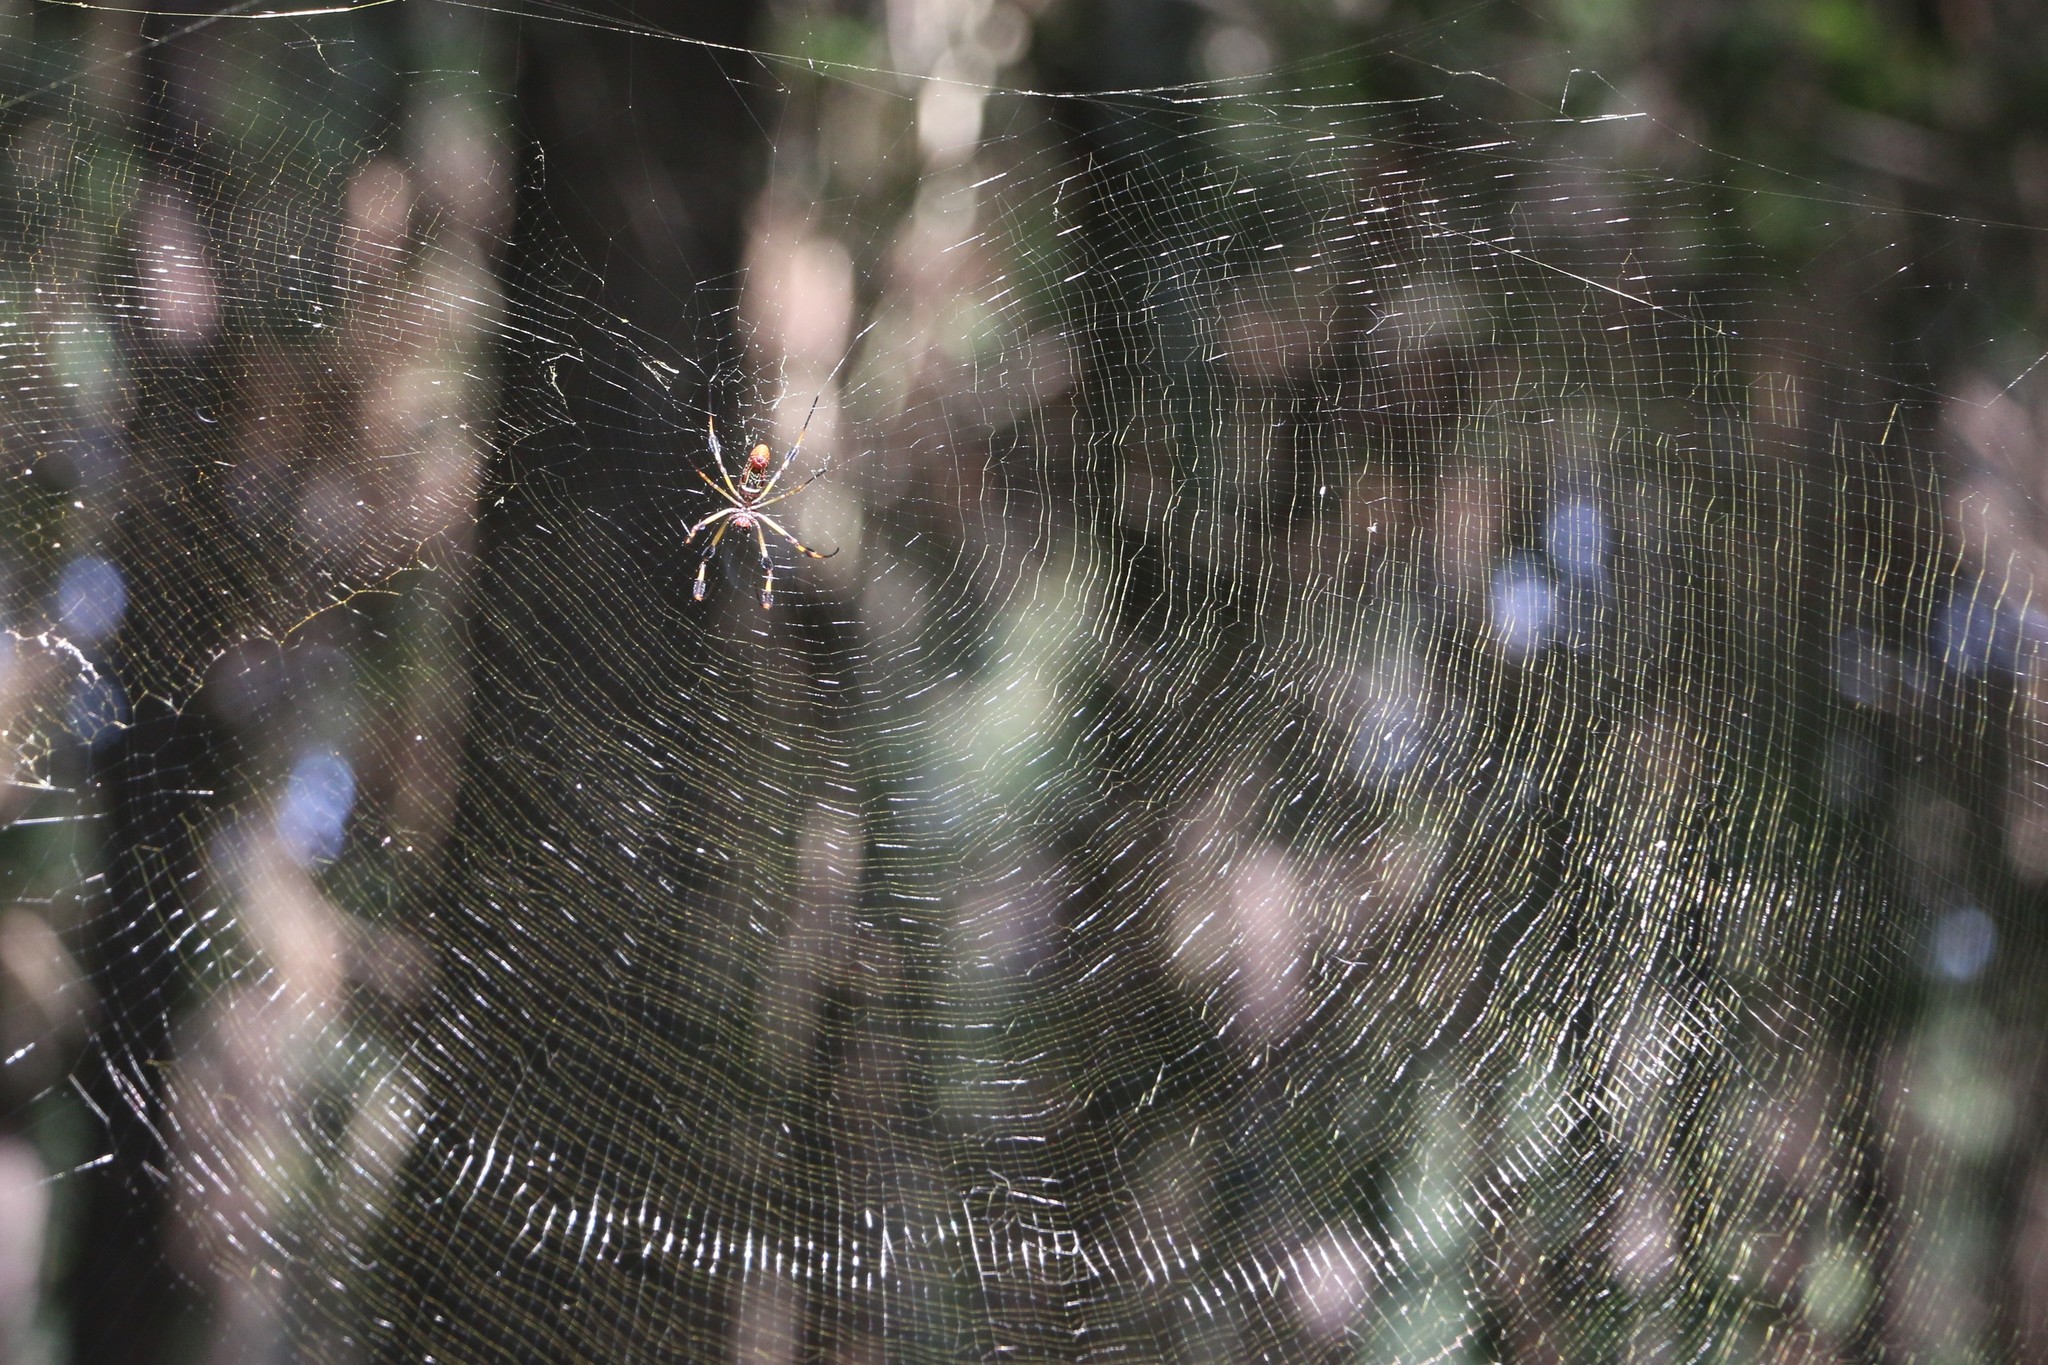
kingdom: Animalia
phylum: Arthropoda
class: Arachnida
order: Araneae
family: Araneidae
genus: Trichonephila
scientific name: Trichonephila clavipes
